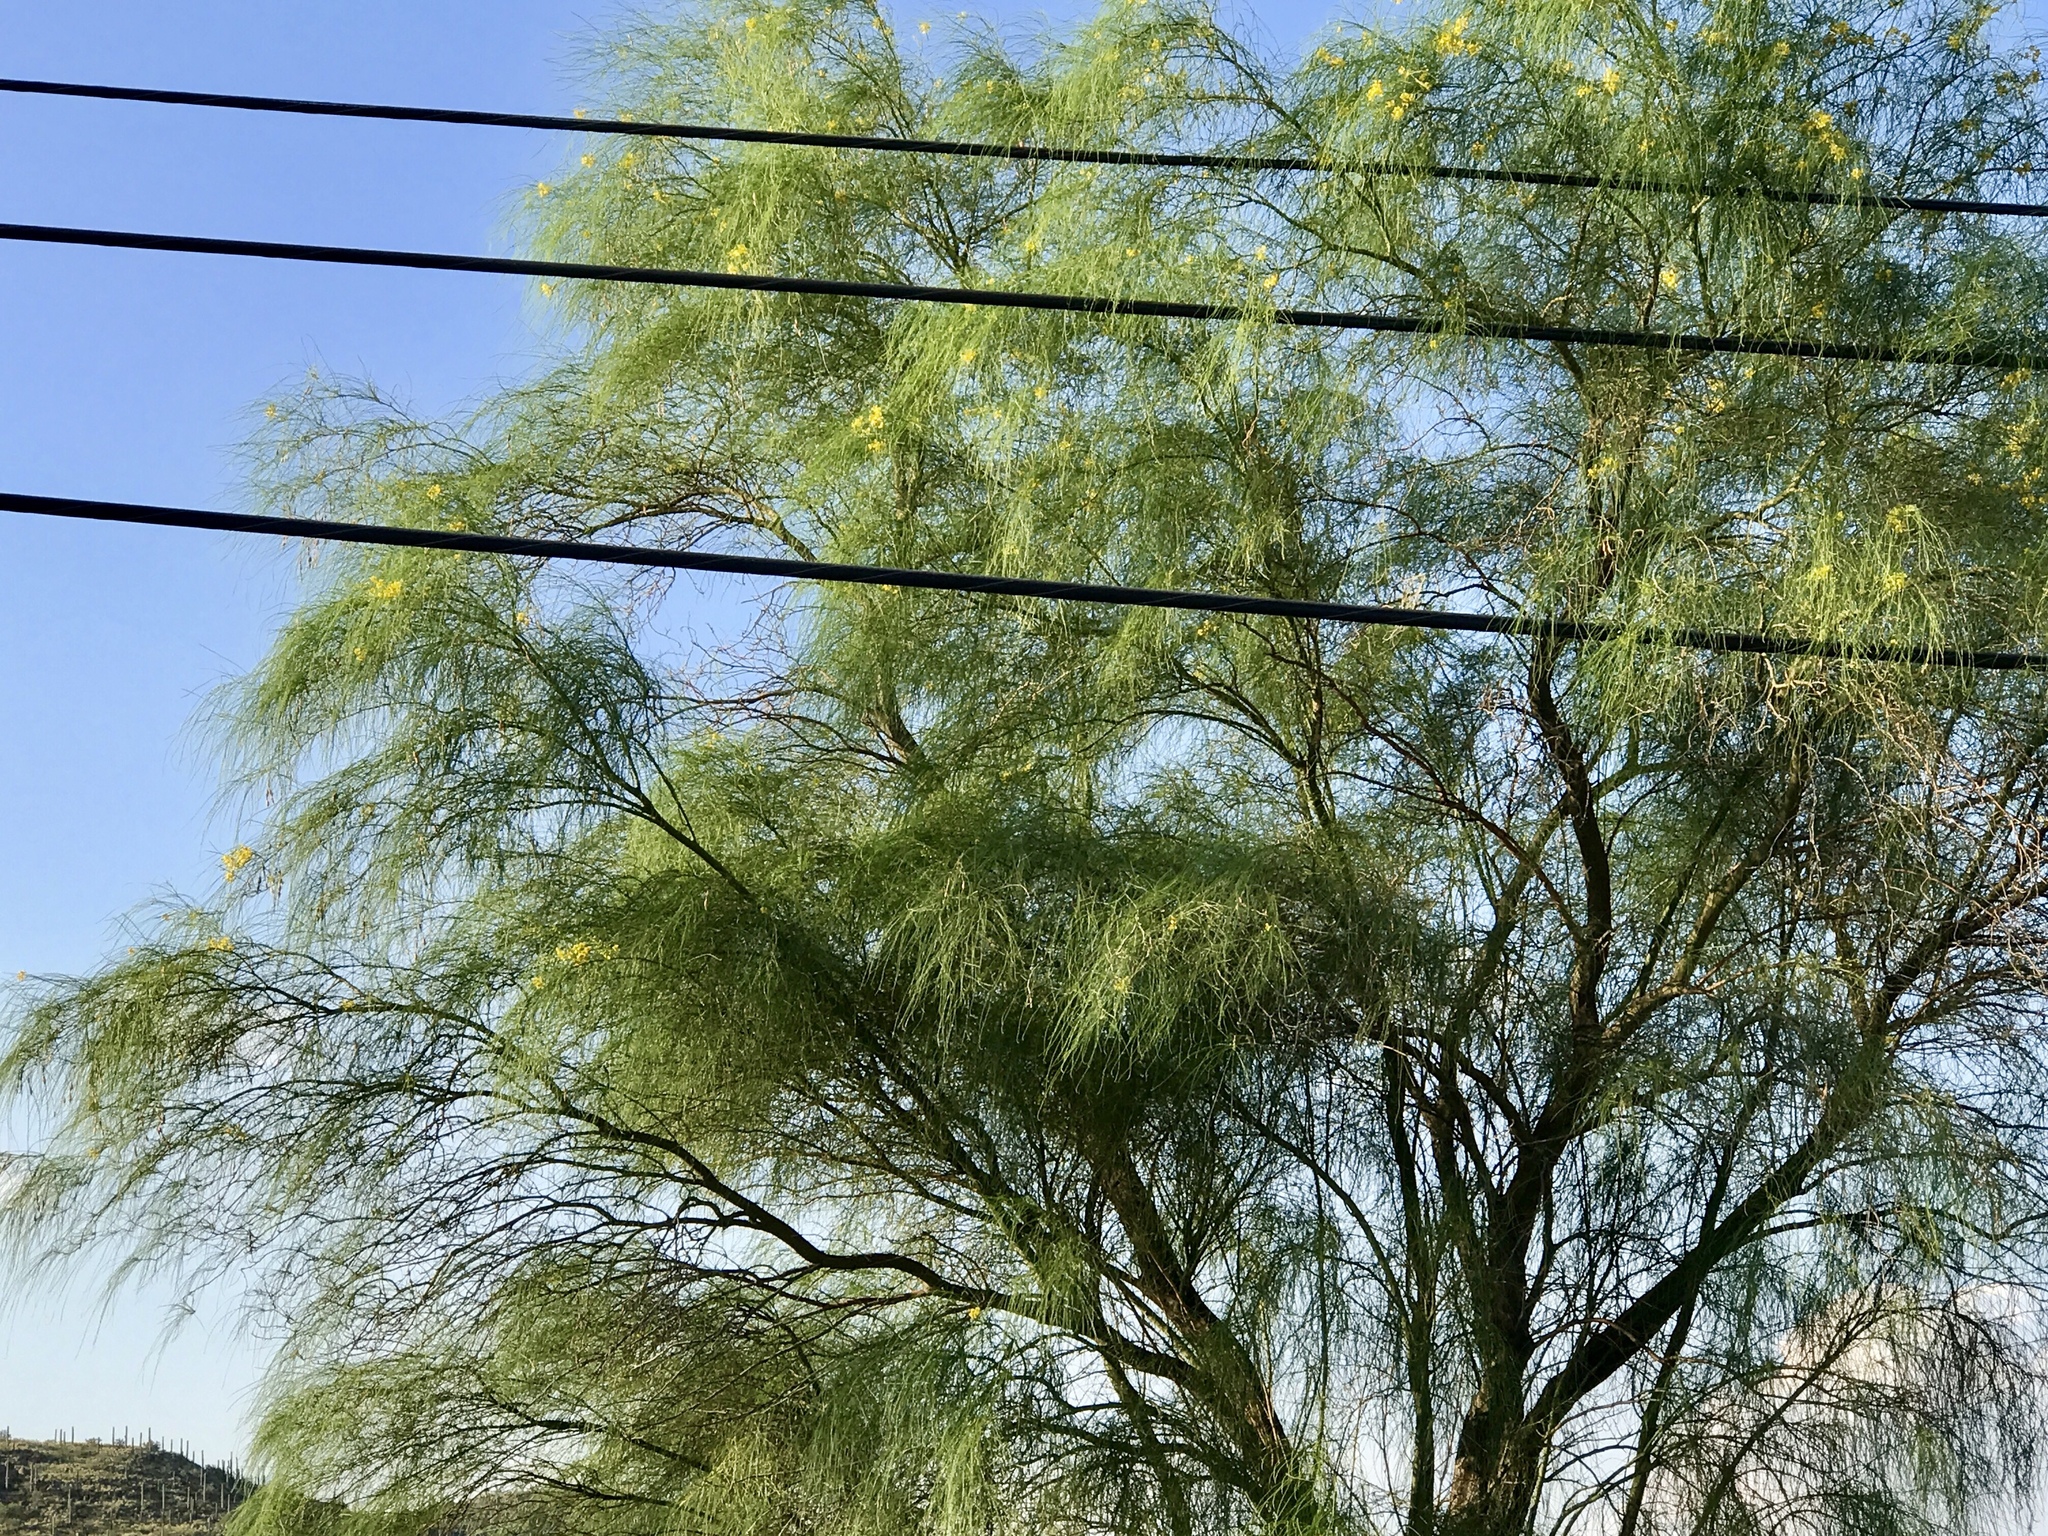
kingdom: Plantae
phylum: Tracheophyta
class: Magnoliopsida
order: Fabales
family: Fabaceae
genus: Parkinsonia
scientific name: Parkinsonia aculeata
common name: Jerusalem thorn
